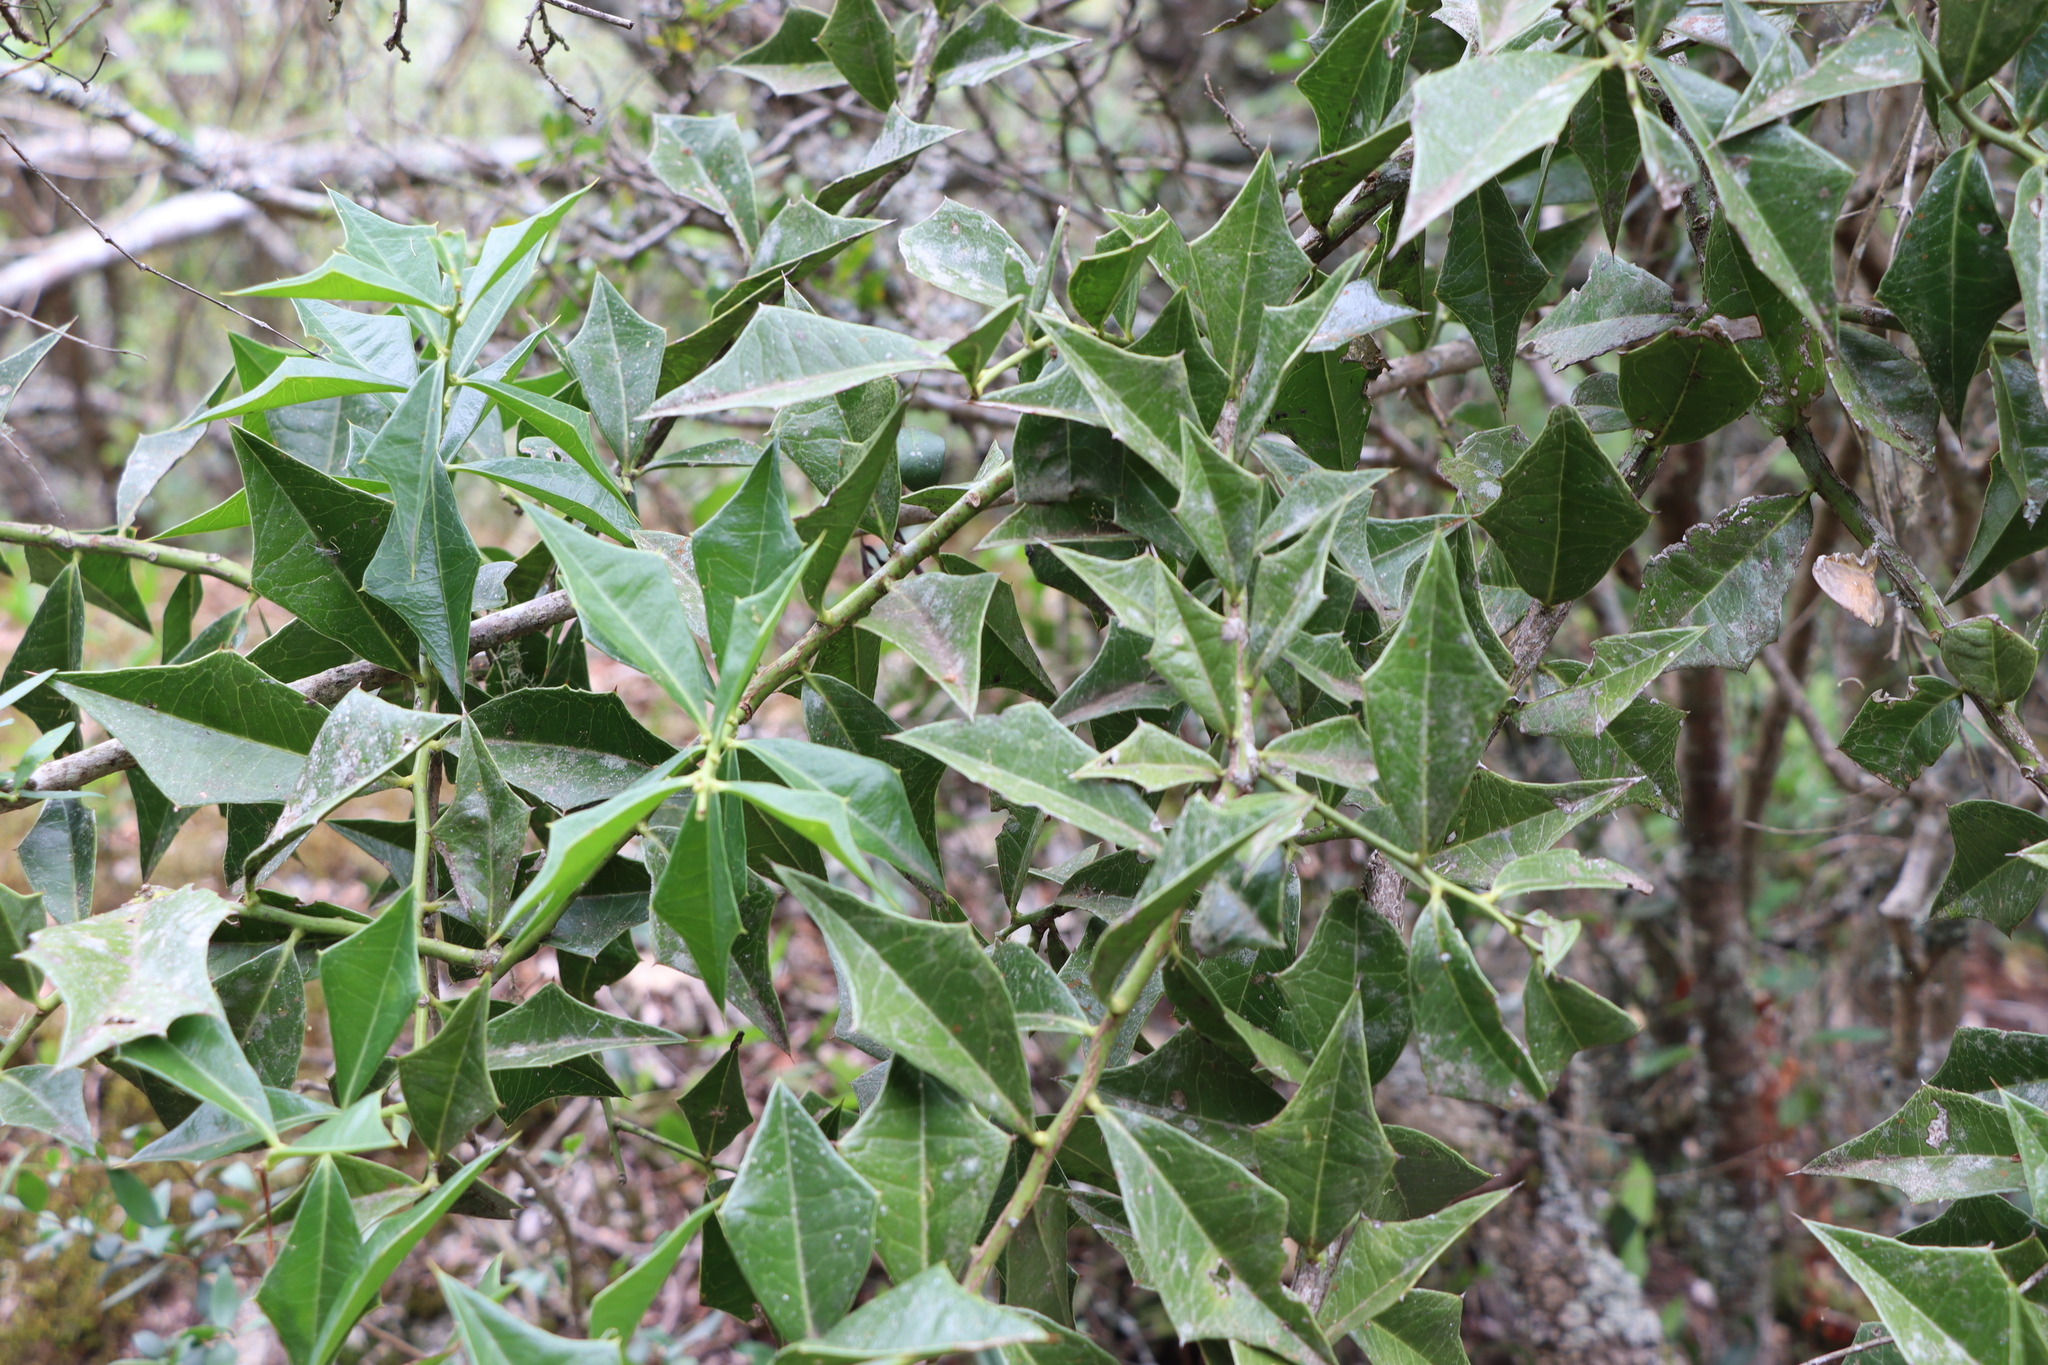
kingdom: Plantae
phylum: Tracheophyta
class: Magnoliopsida
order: Santalales
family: Cervantesiaceae
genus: Jodina
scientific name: Jodina rhombifolia
